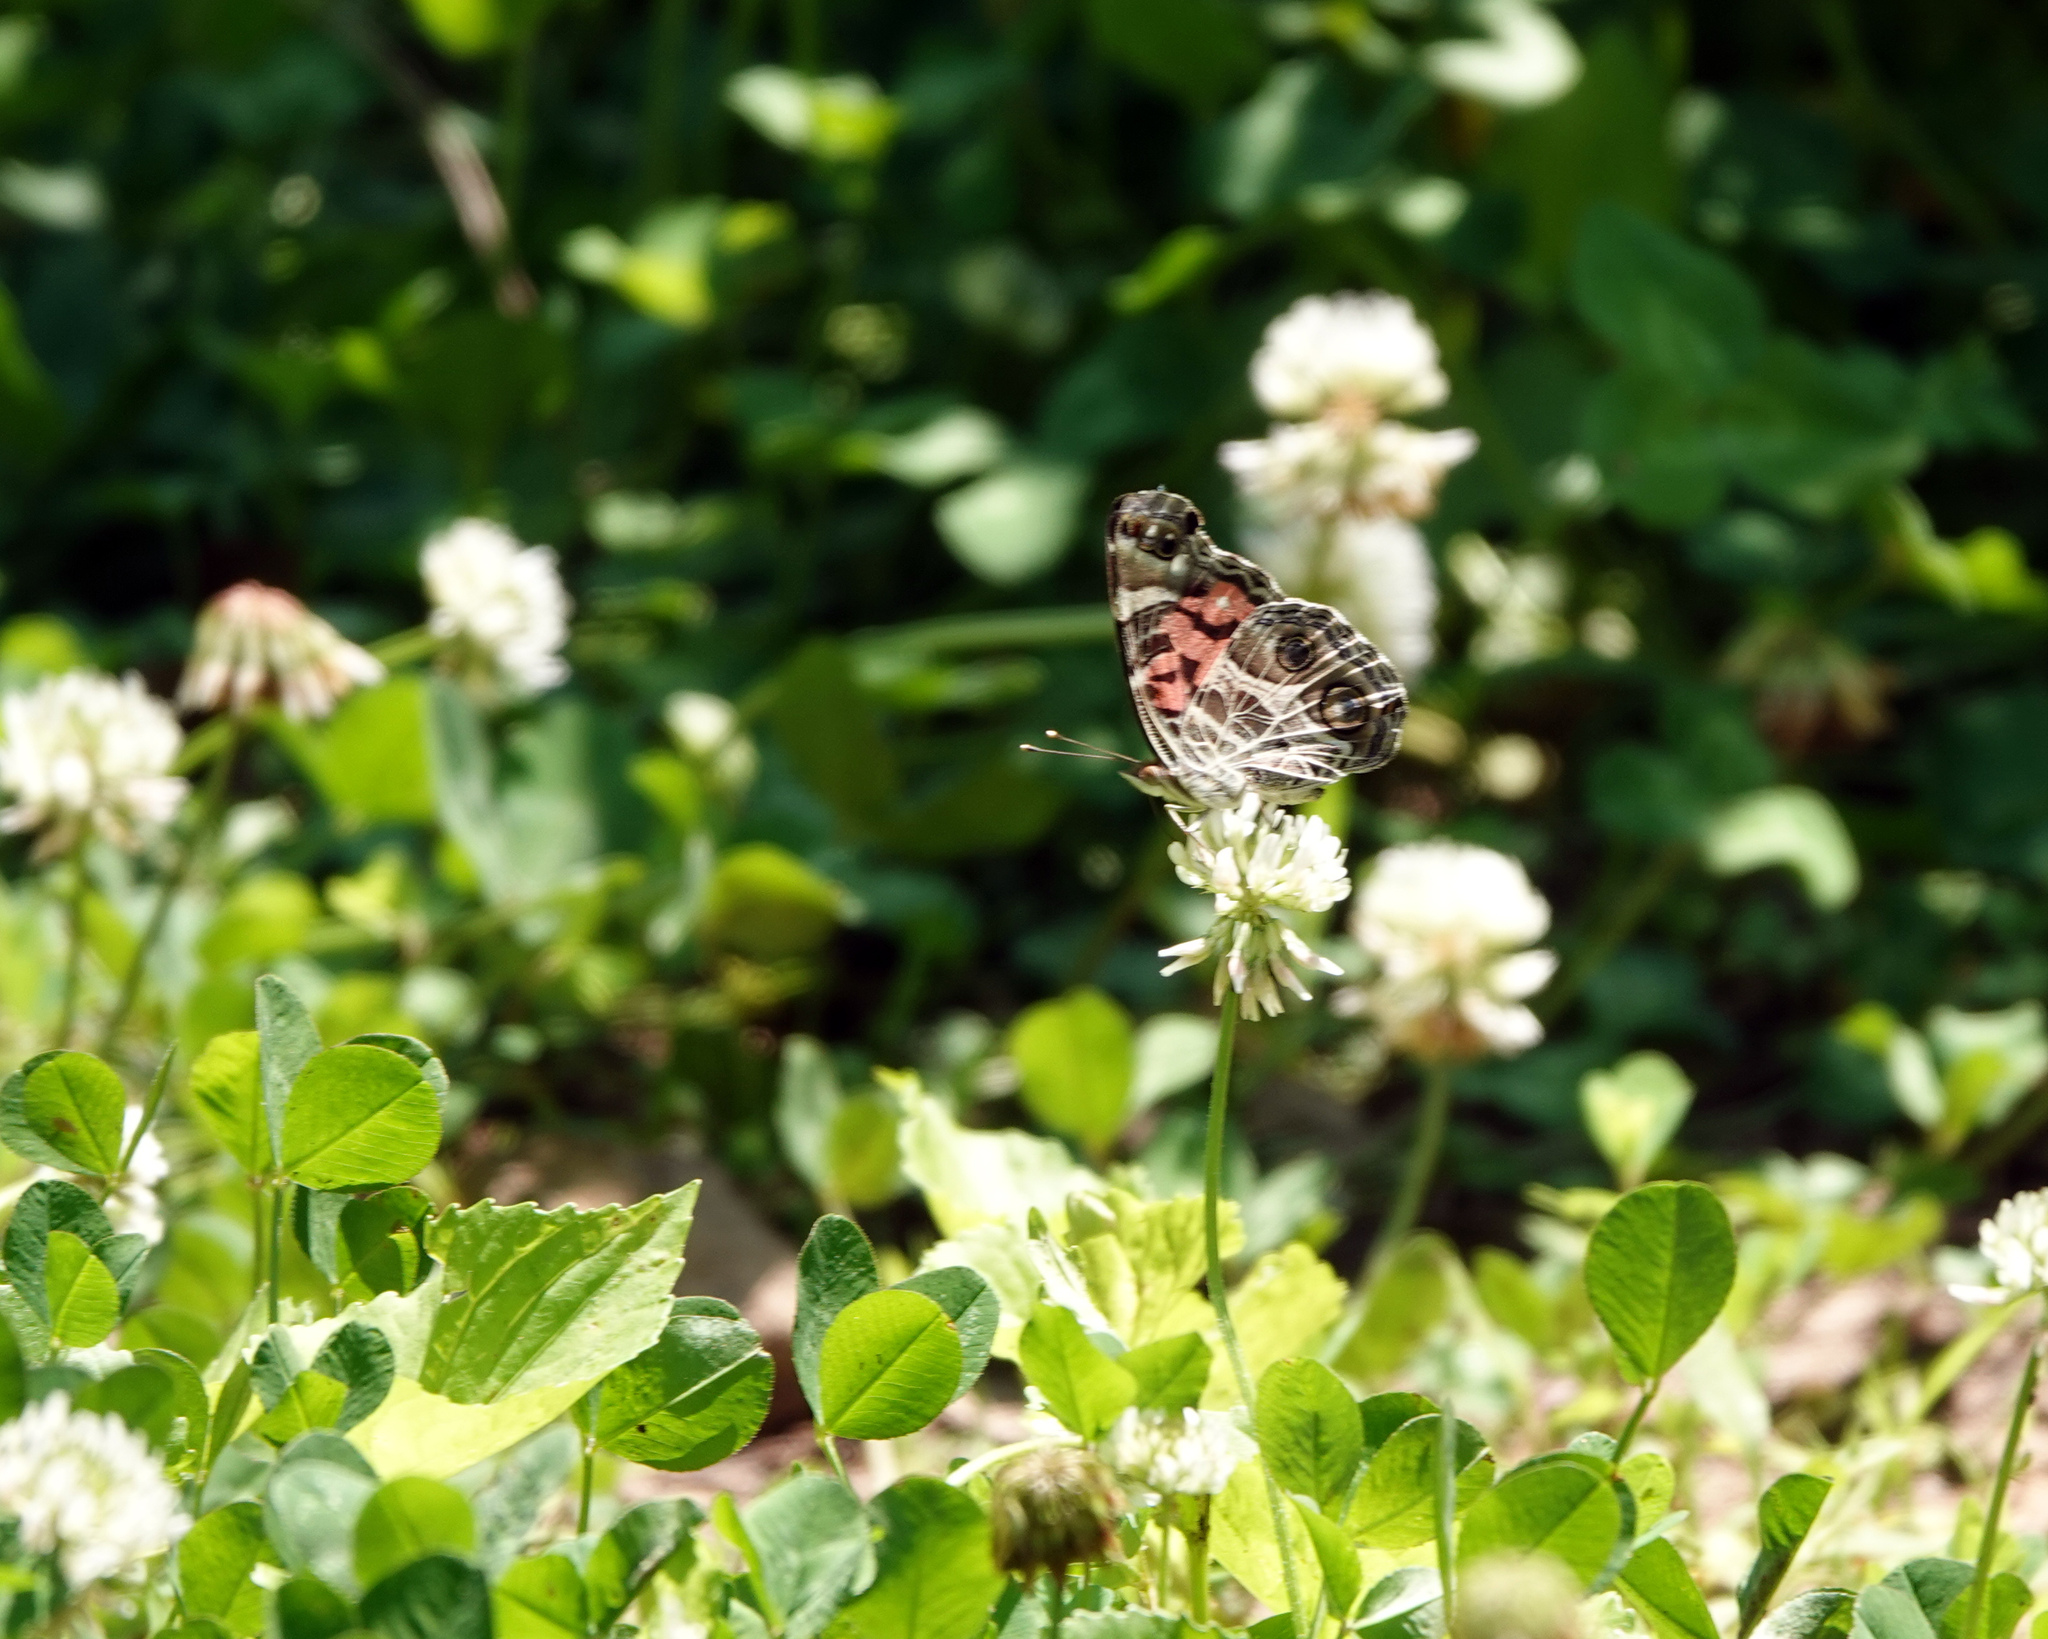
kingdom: Animalia
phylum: Arthropoda
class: Insecta
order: Lepidoptera
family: Nymphalidae
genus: Vanessa
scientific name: Vanessa virginiensis
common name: American lady
